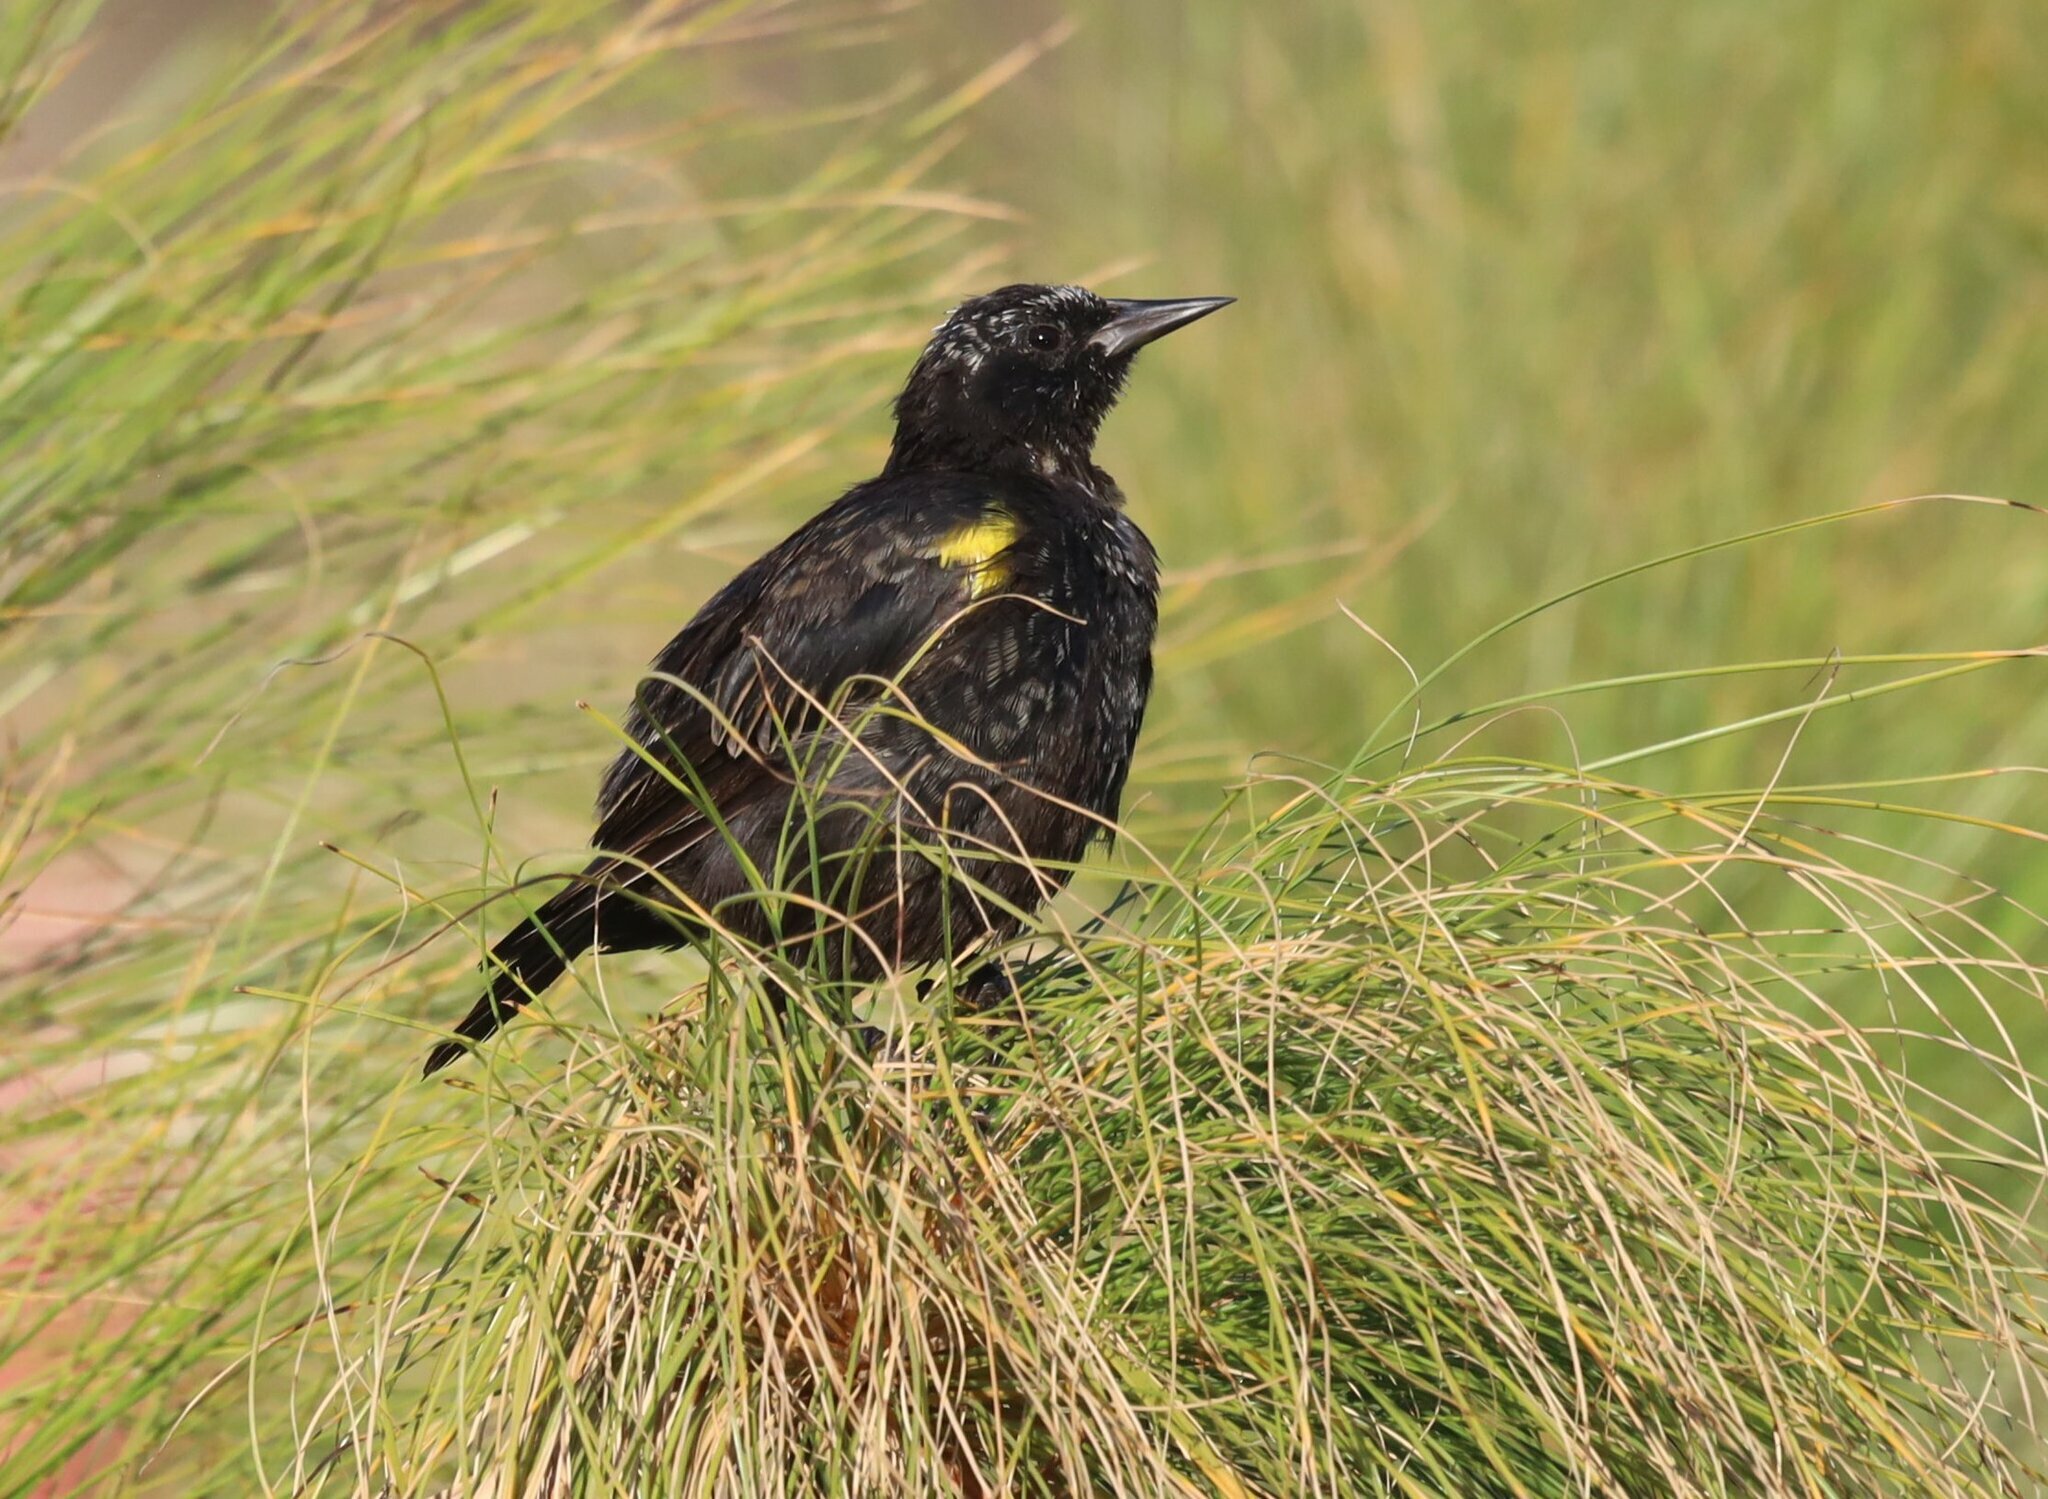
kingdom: Animalia
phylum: Chordata
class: Aves
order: Passeriformes
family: Icteridae
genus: Agelasticus
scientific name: Agelasticus thilius
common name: Yellow-winged blackbird
